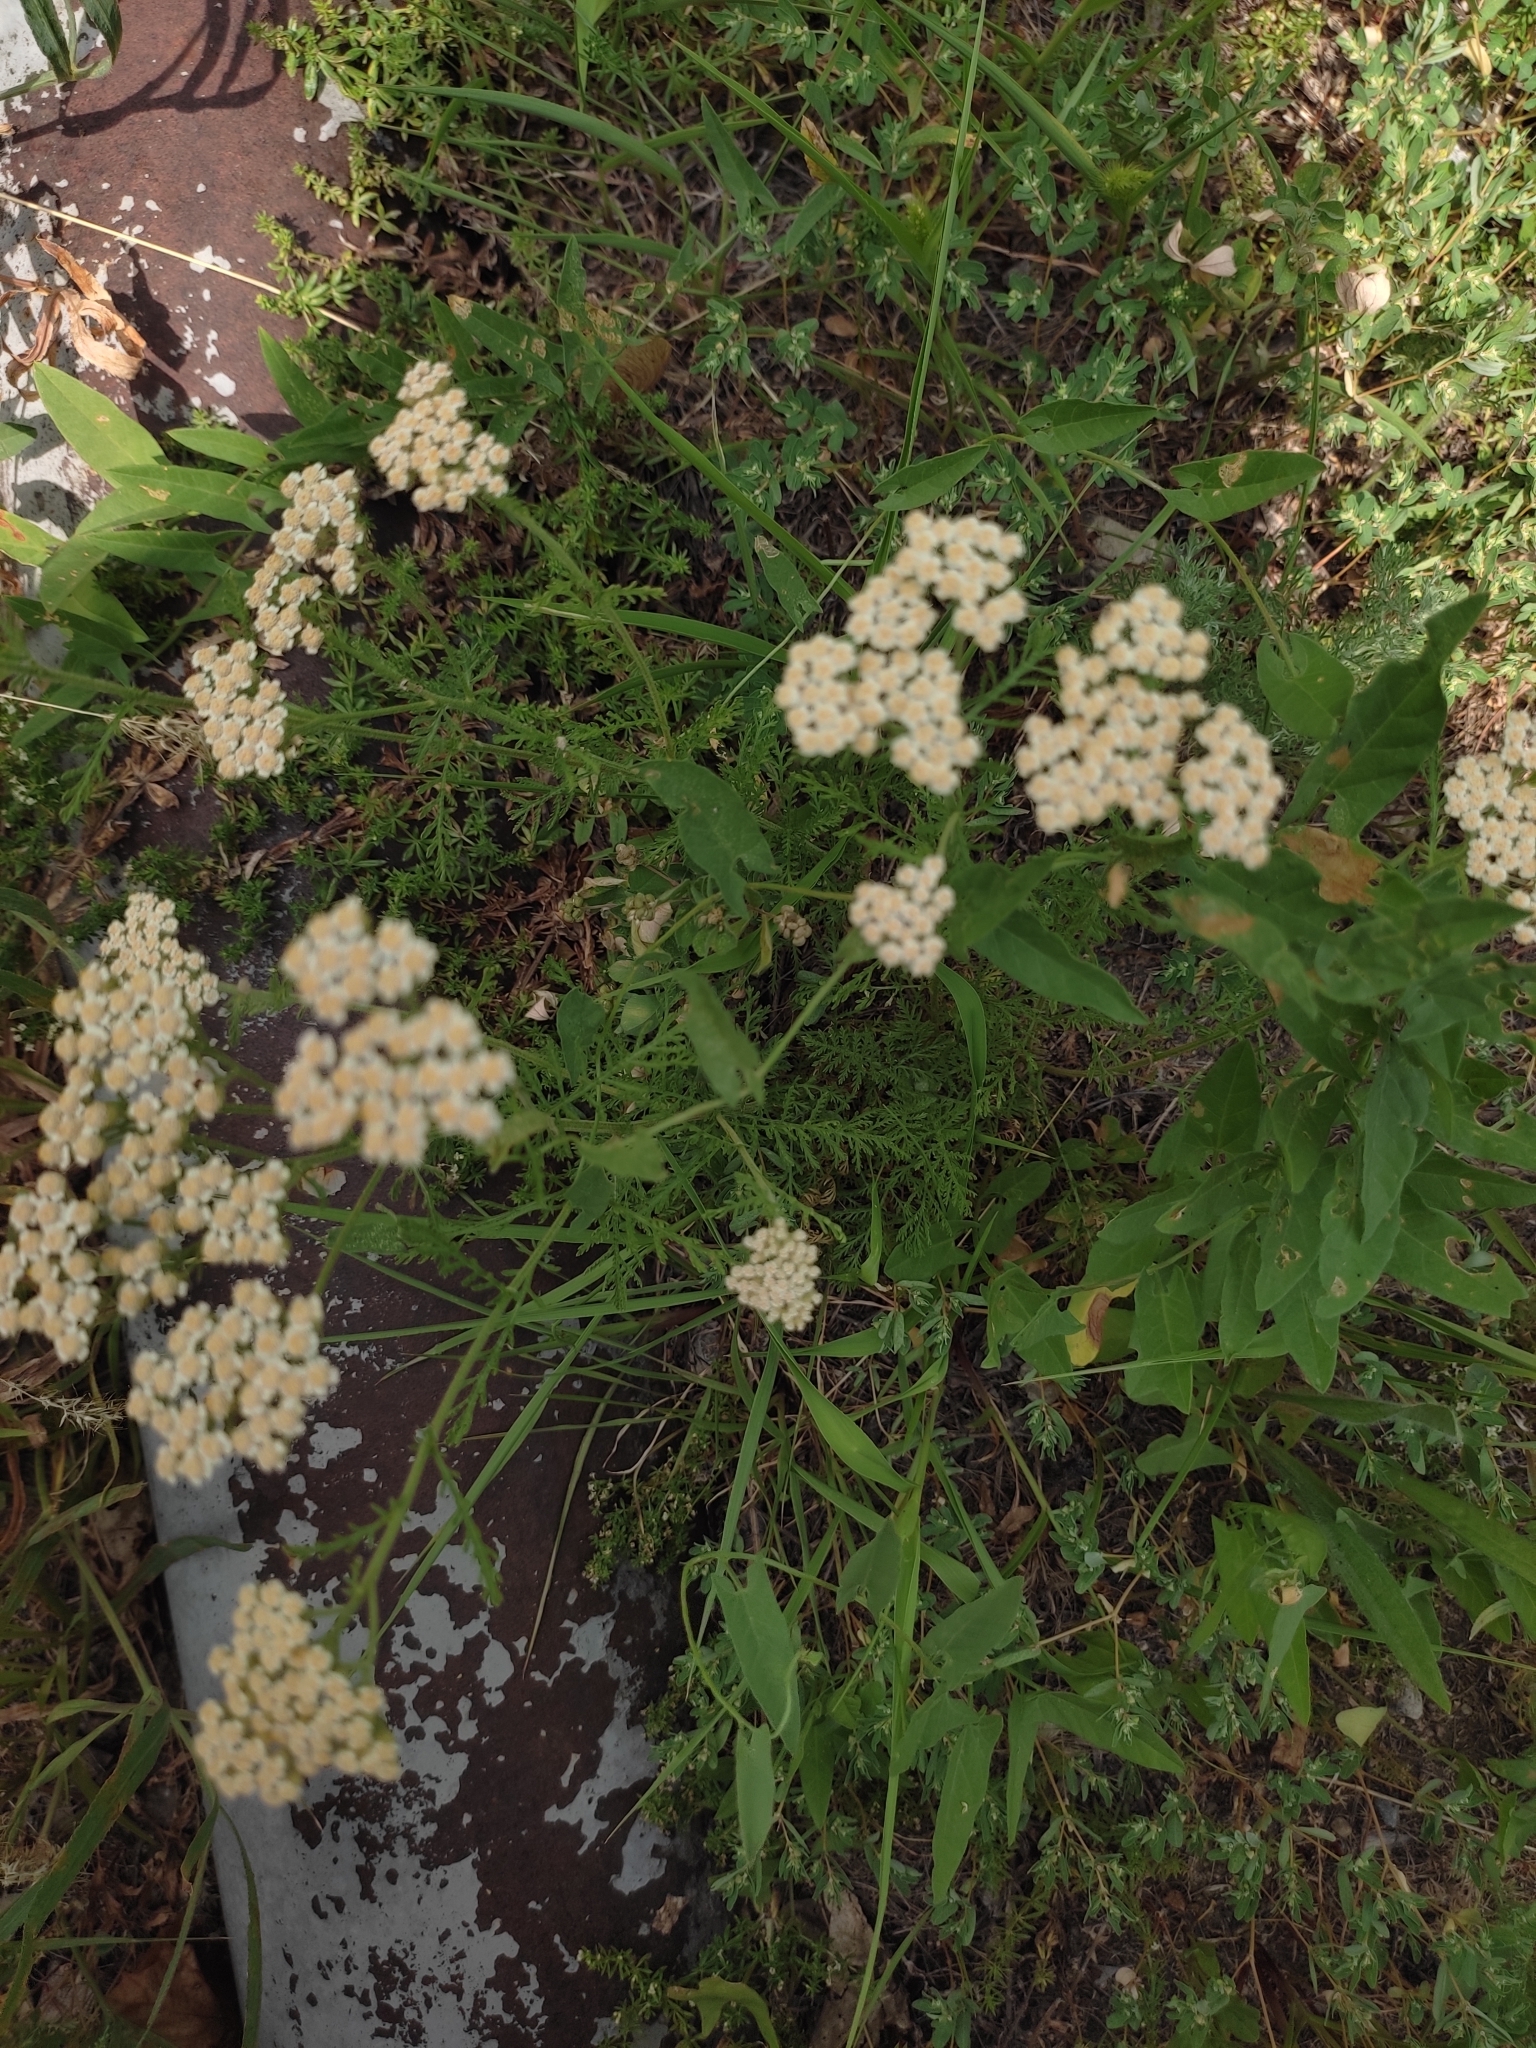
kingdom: Plantae
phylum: Tracheophyta
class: Magnoliopsida
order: Asterales
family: Asteraceae
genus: Achillea
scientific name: Achillea nobilis
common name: Noble yarrow
